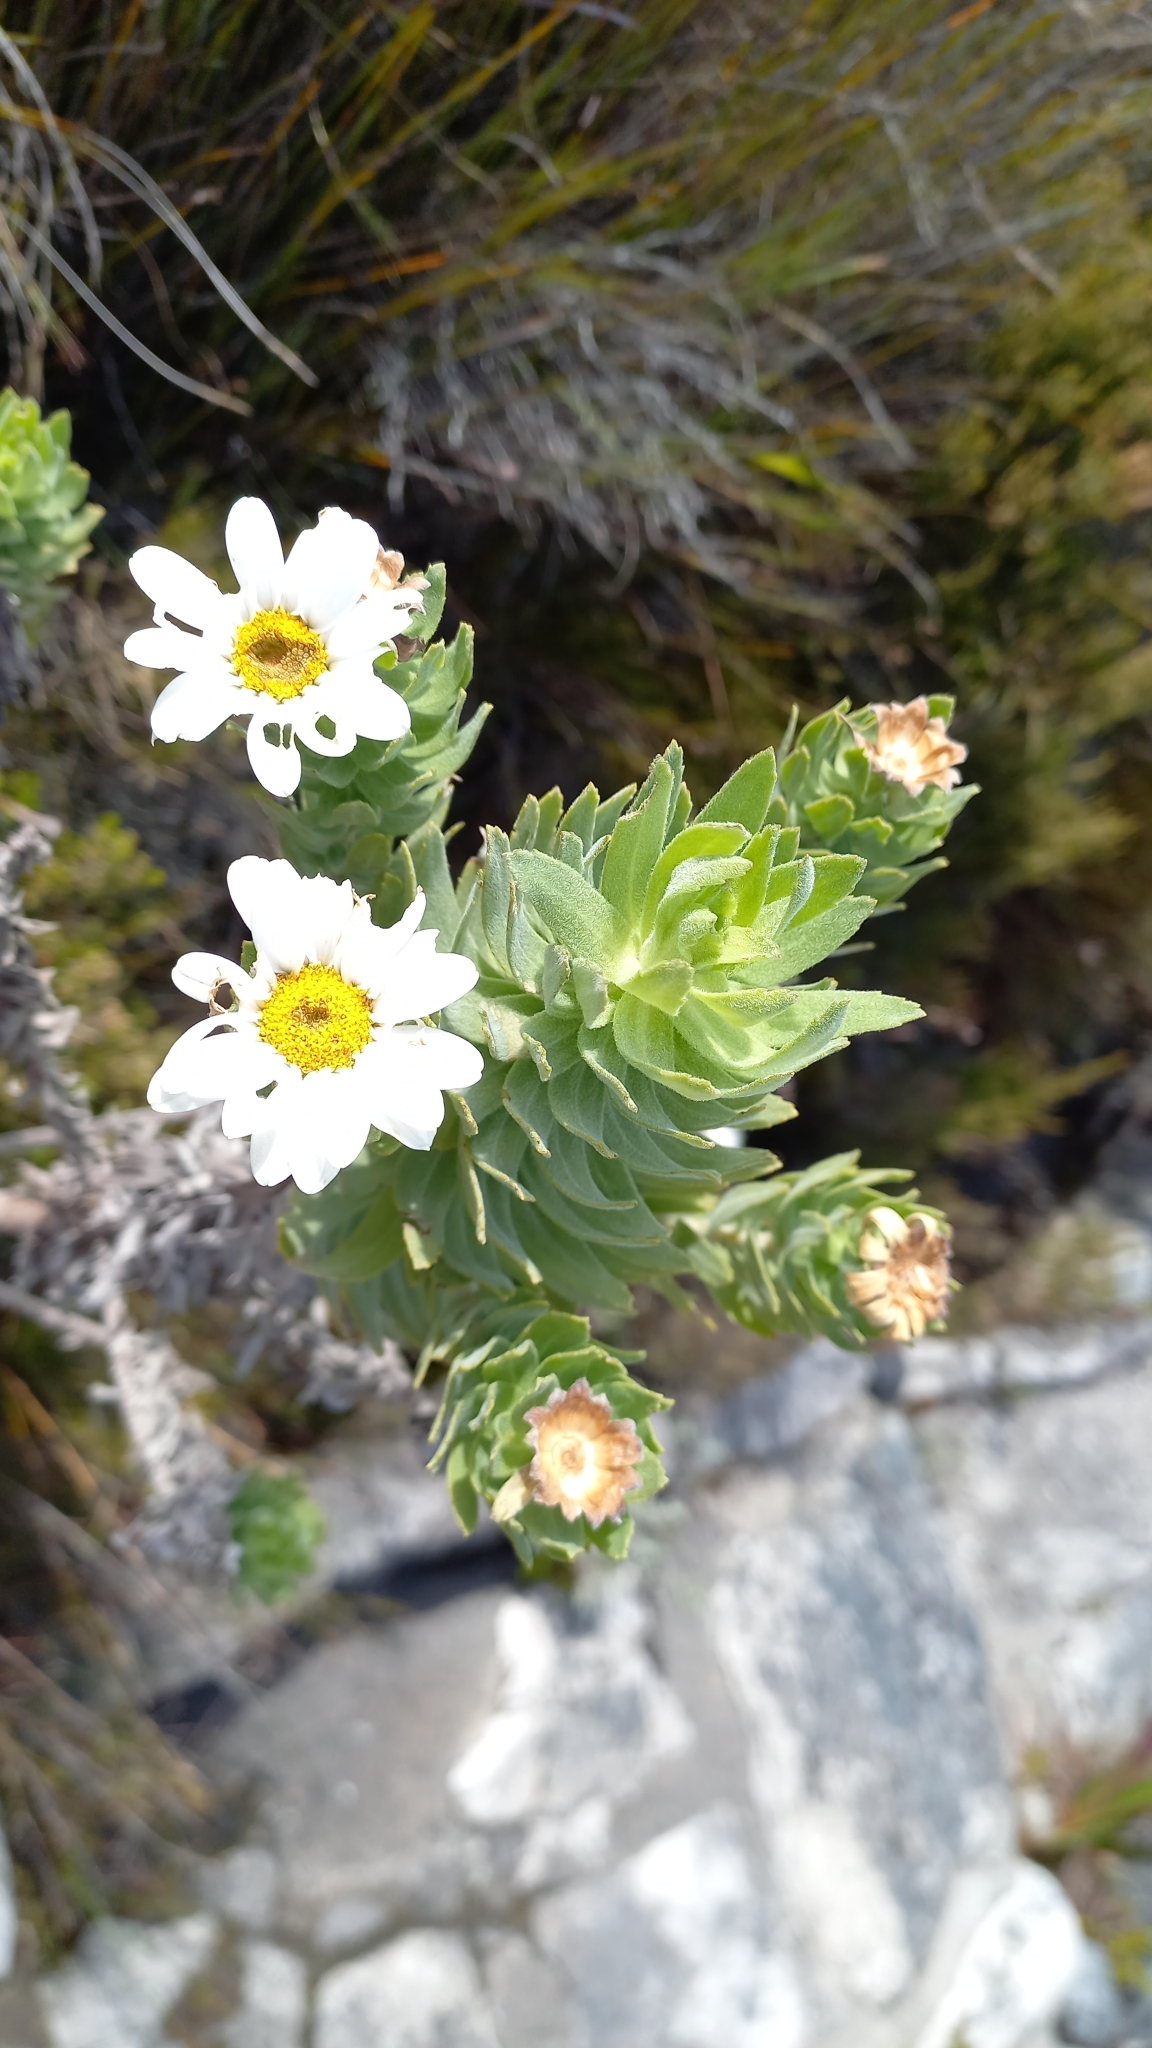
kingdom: Plantae
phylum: Tracheophyta
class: Magnoliopsida
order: Asterales
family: Asteraceae
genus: Osmitopsis
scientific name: Osmitopsis asteriscoides
